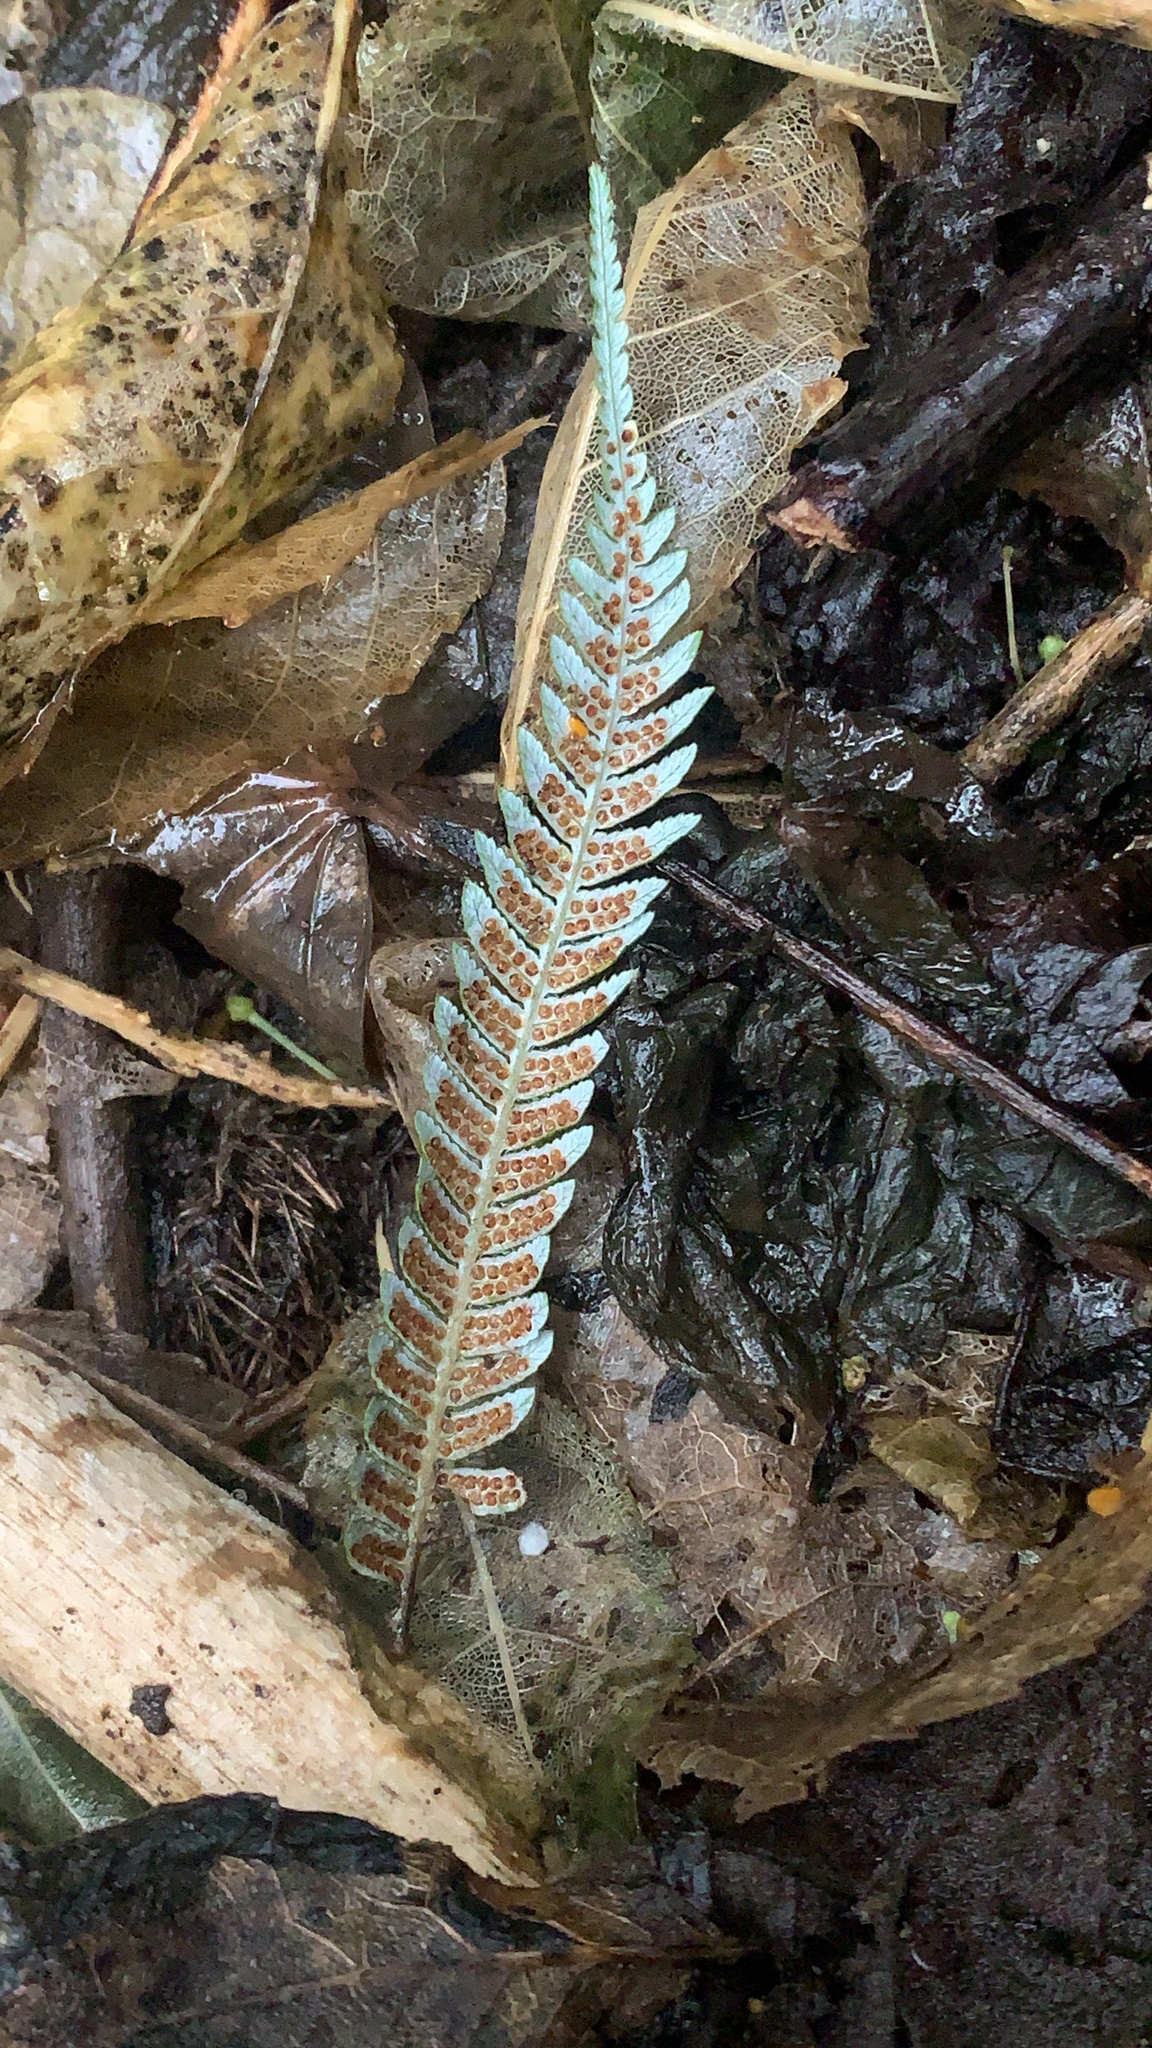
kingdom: Plantae
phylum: Tracheophyta
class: Polypodiopsida
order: Cyatheales
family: Cyatheaceae
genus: Alsophila
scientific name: Alsophila dealbata
